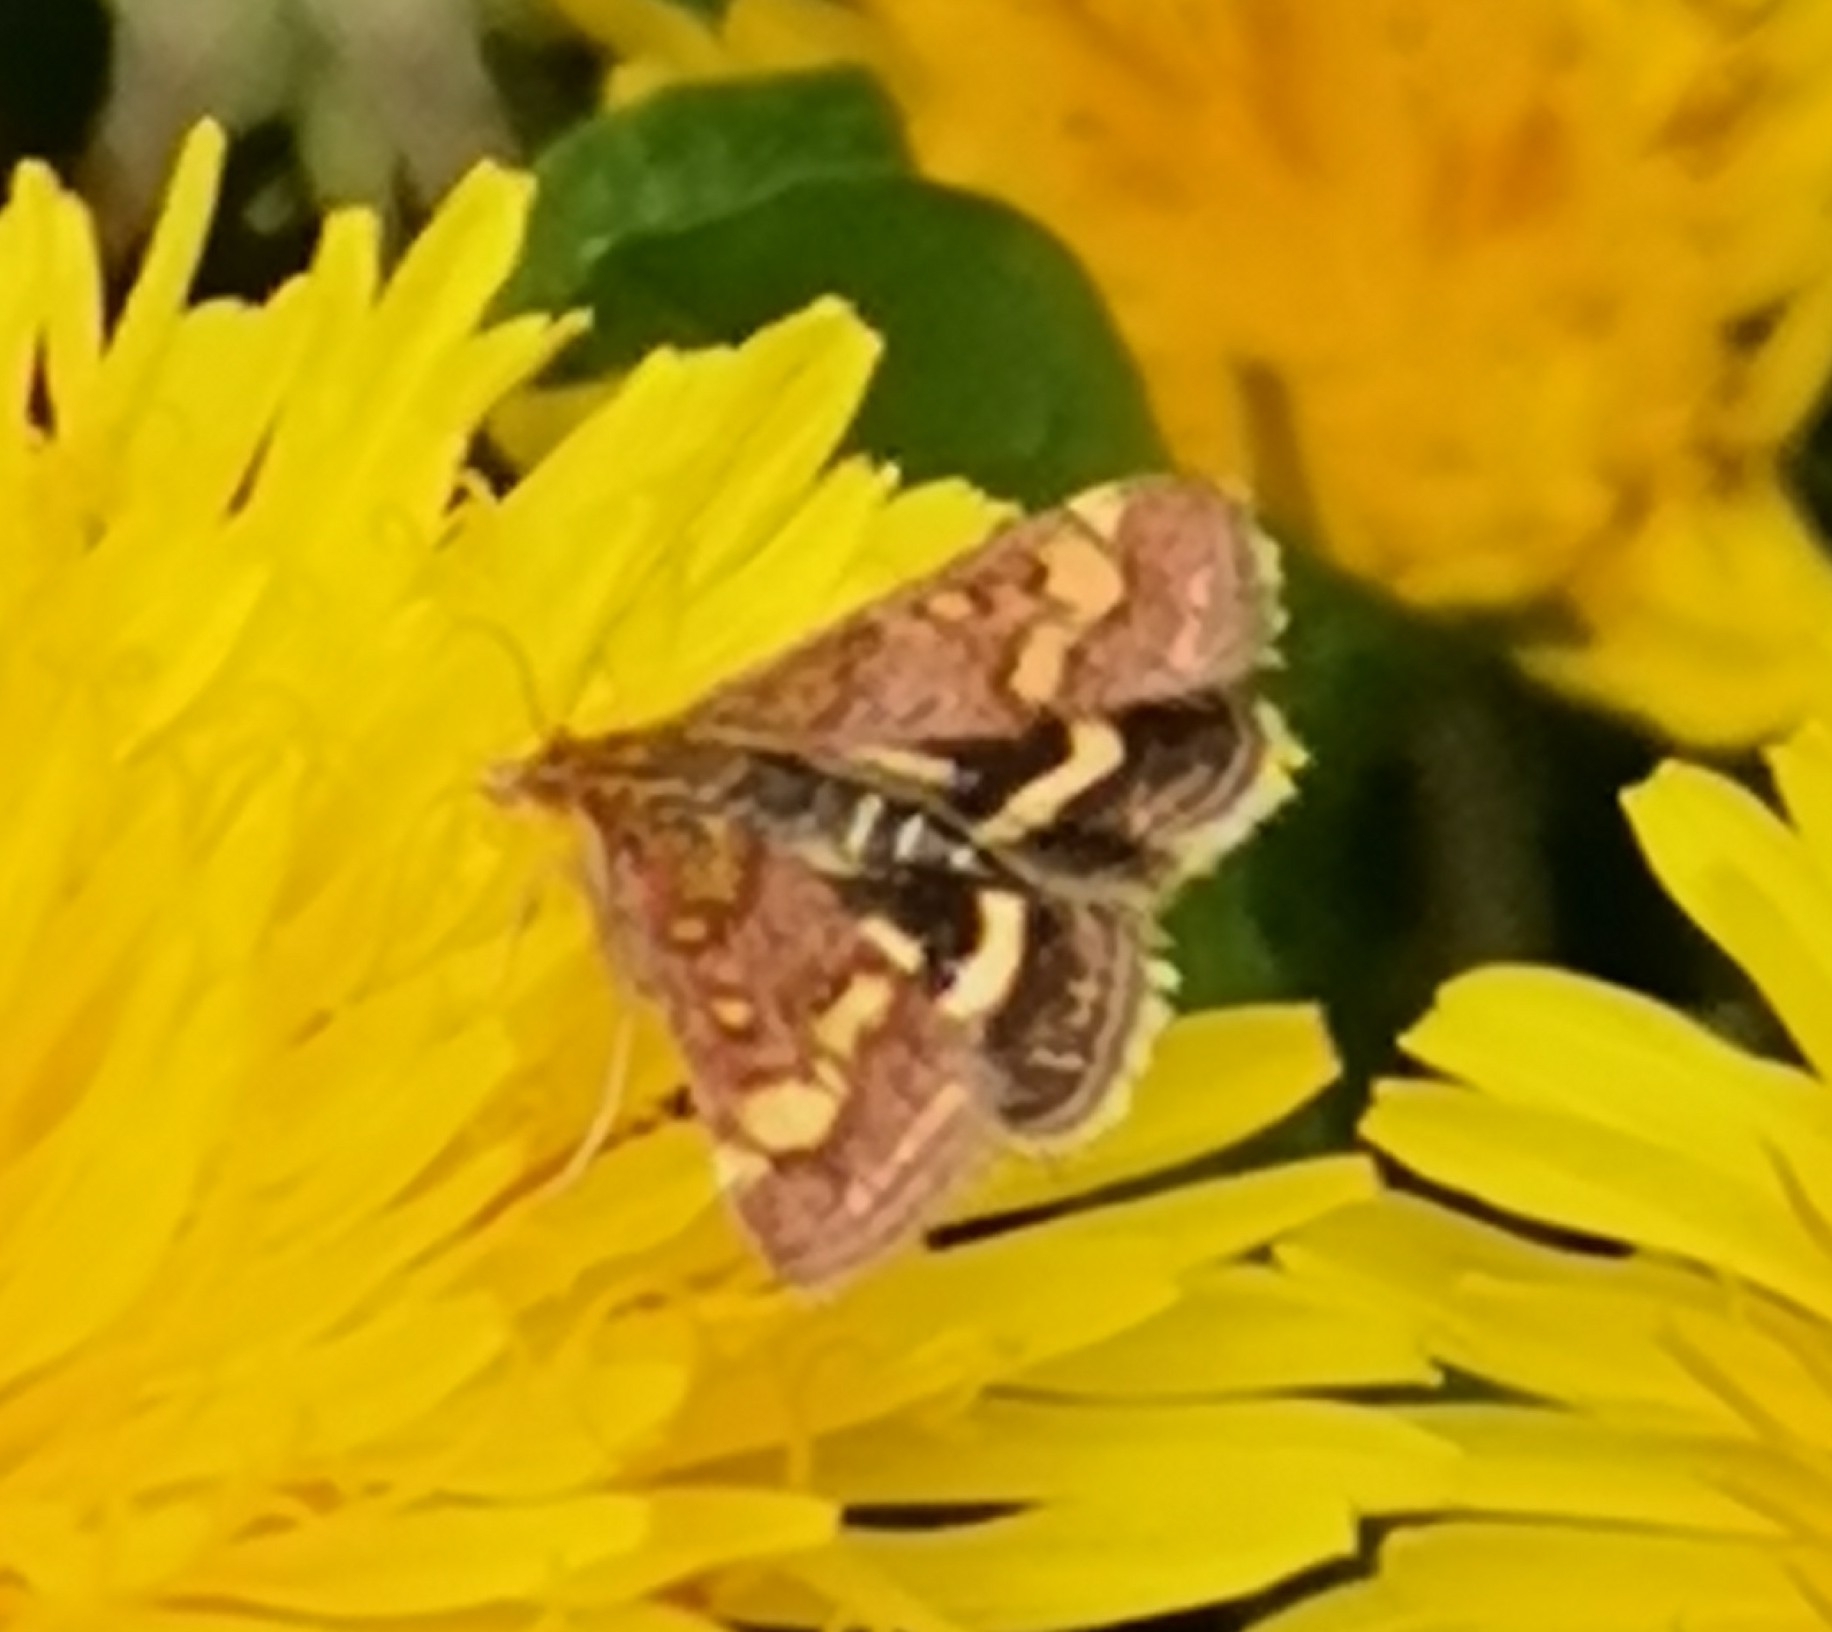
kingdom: Animalia
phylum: Arthropoda
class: Insecta
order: Lepidoptera
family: Crambidae
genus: Pyrausta
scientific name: Pyrausta purpuralis
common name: Common purple & gold
